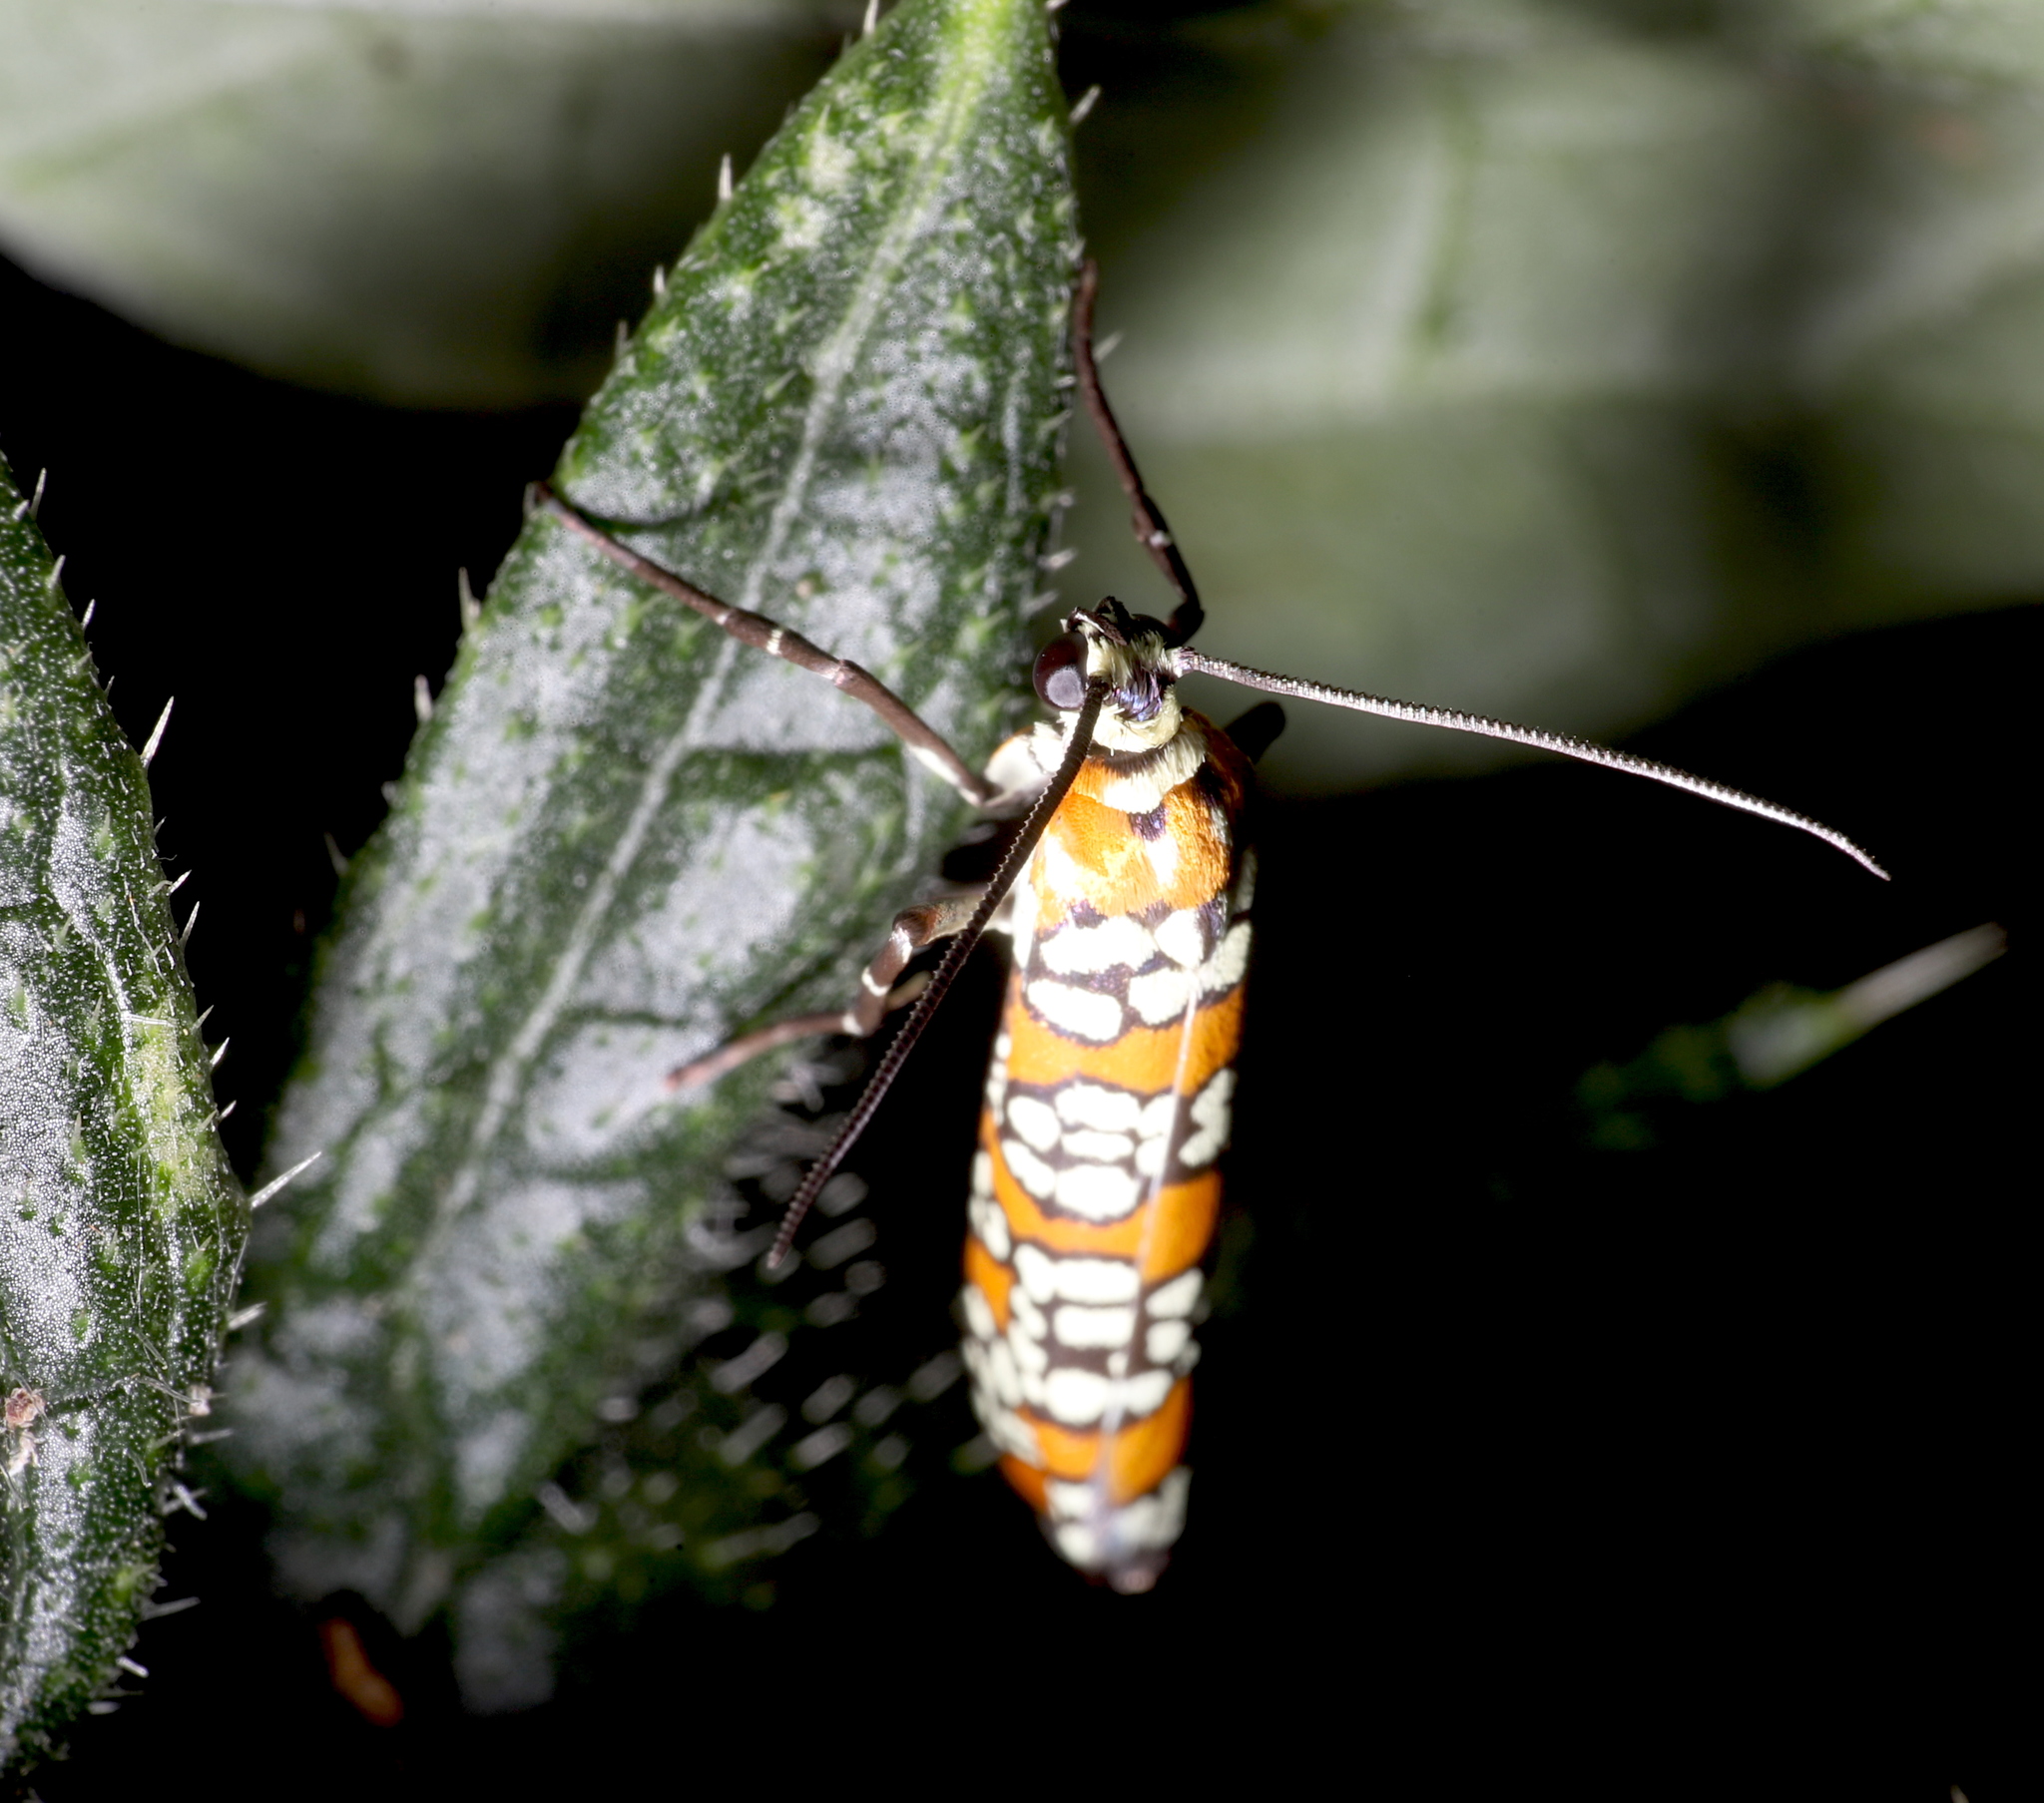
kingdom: Animalia
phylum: Arthropoda
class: Insecta
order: Lepidoptera
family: Attevidae
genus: Atteva
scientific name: Atteva punctella
